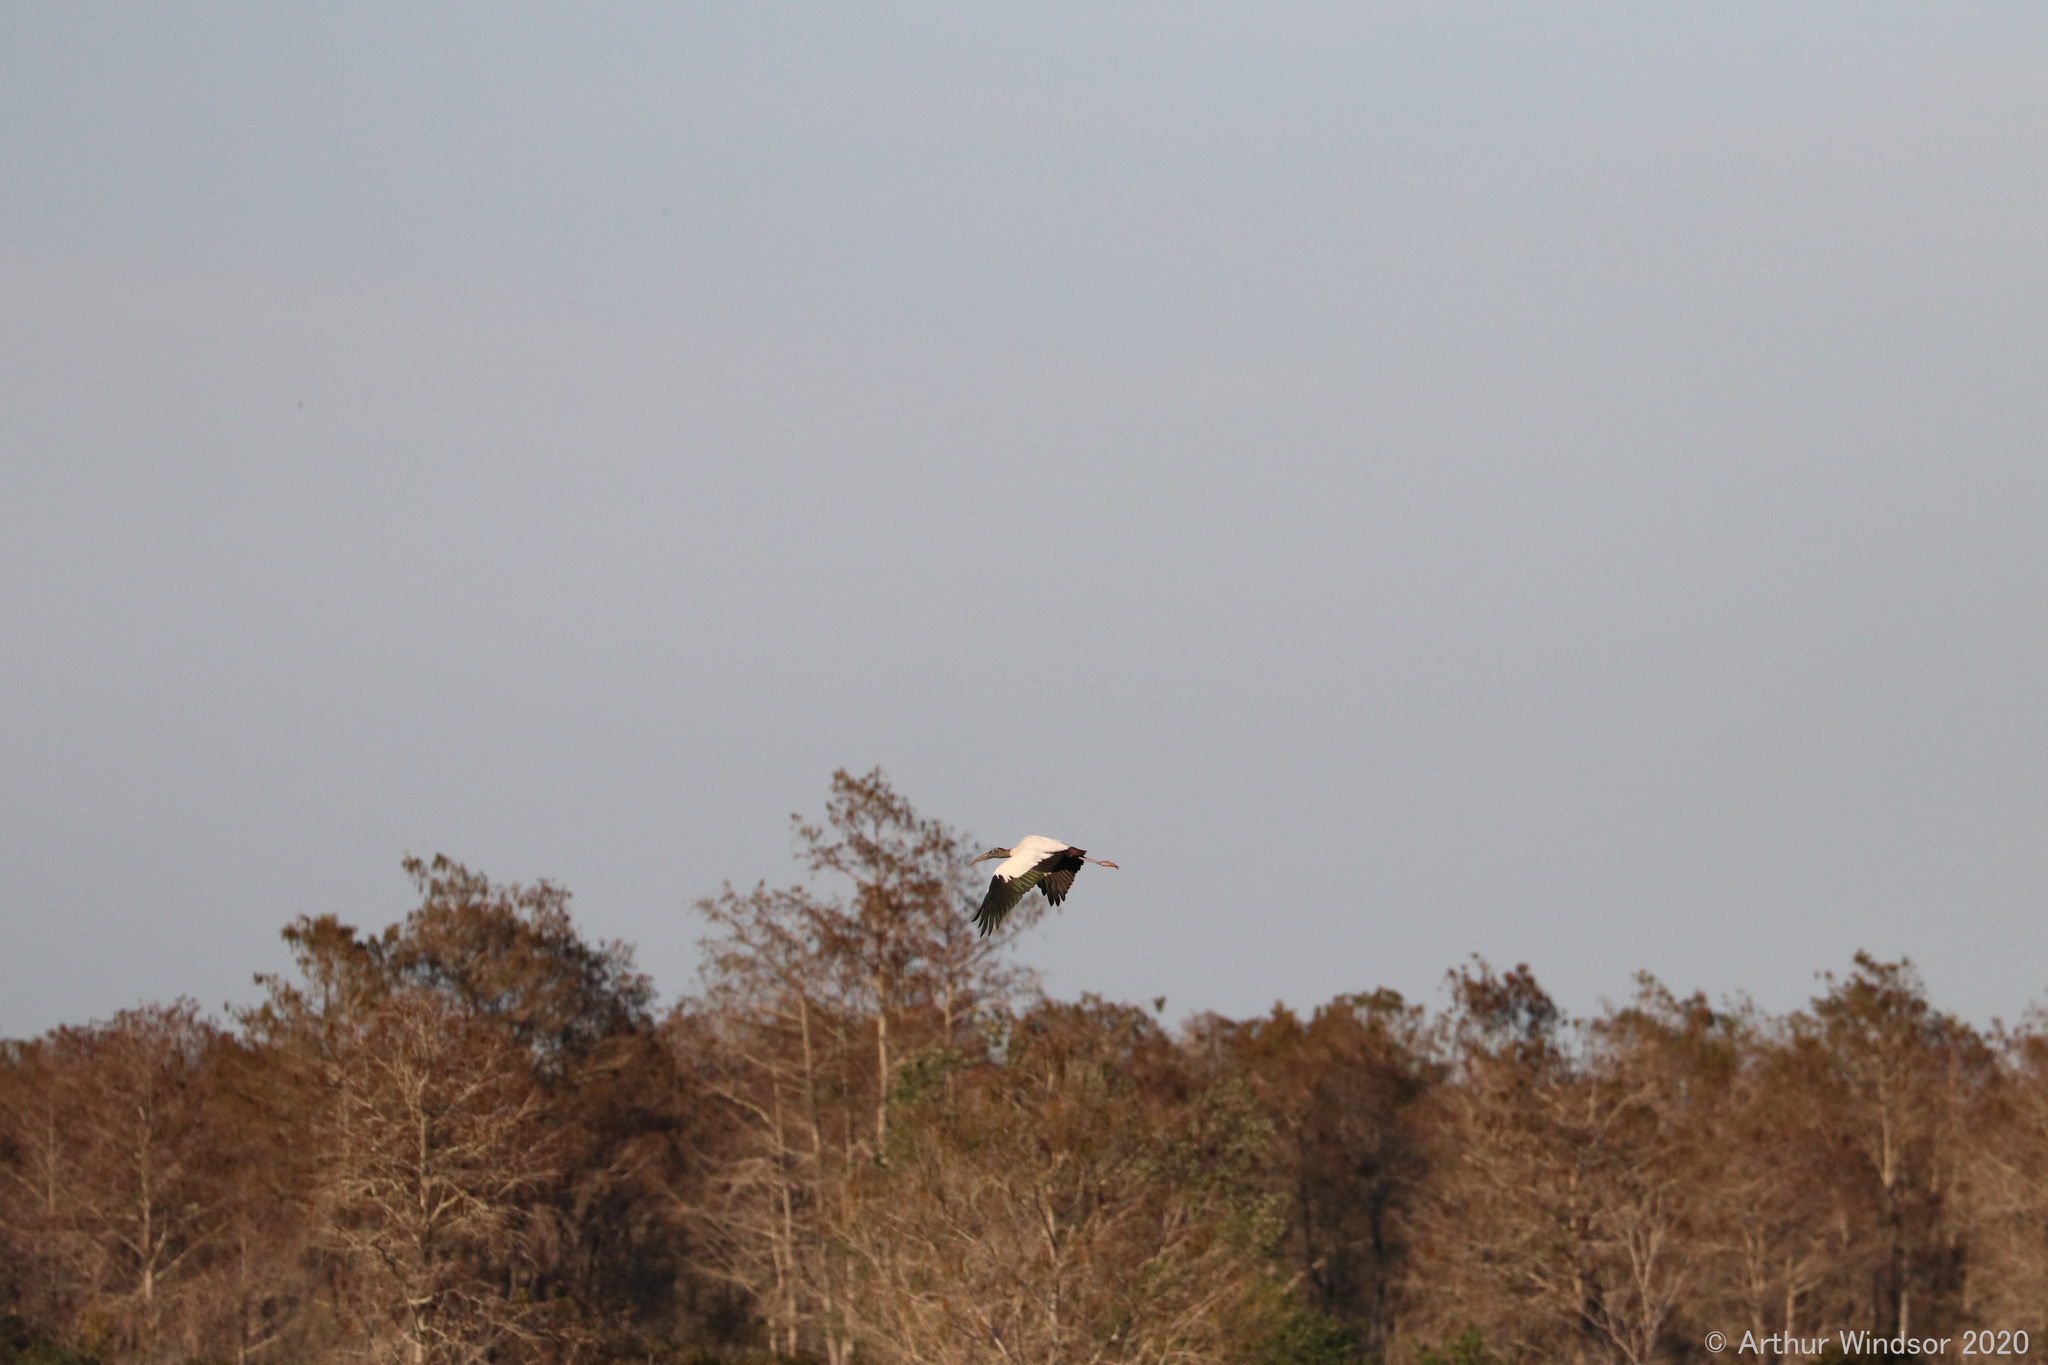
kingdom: Animalia
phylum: Chordata
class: Aves
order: Ciconiiformes
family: Ciconiidae
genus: Mycteria
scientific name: Mycteria americana
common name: Wood stork
